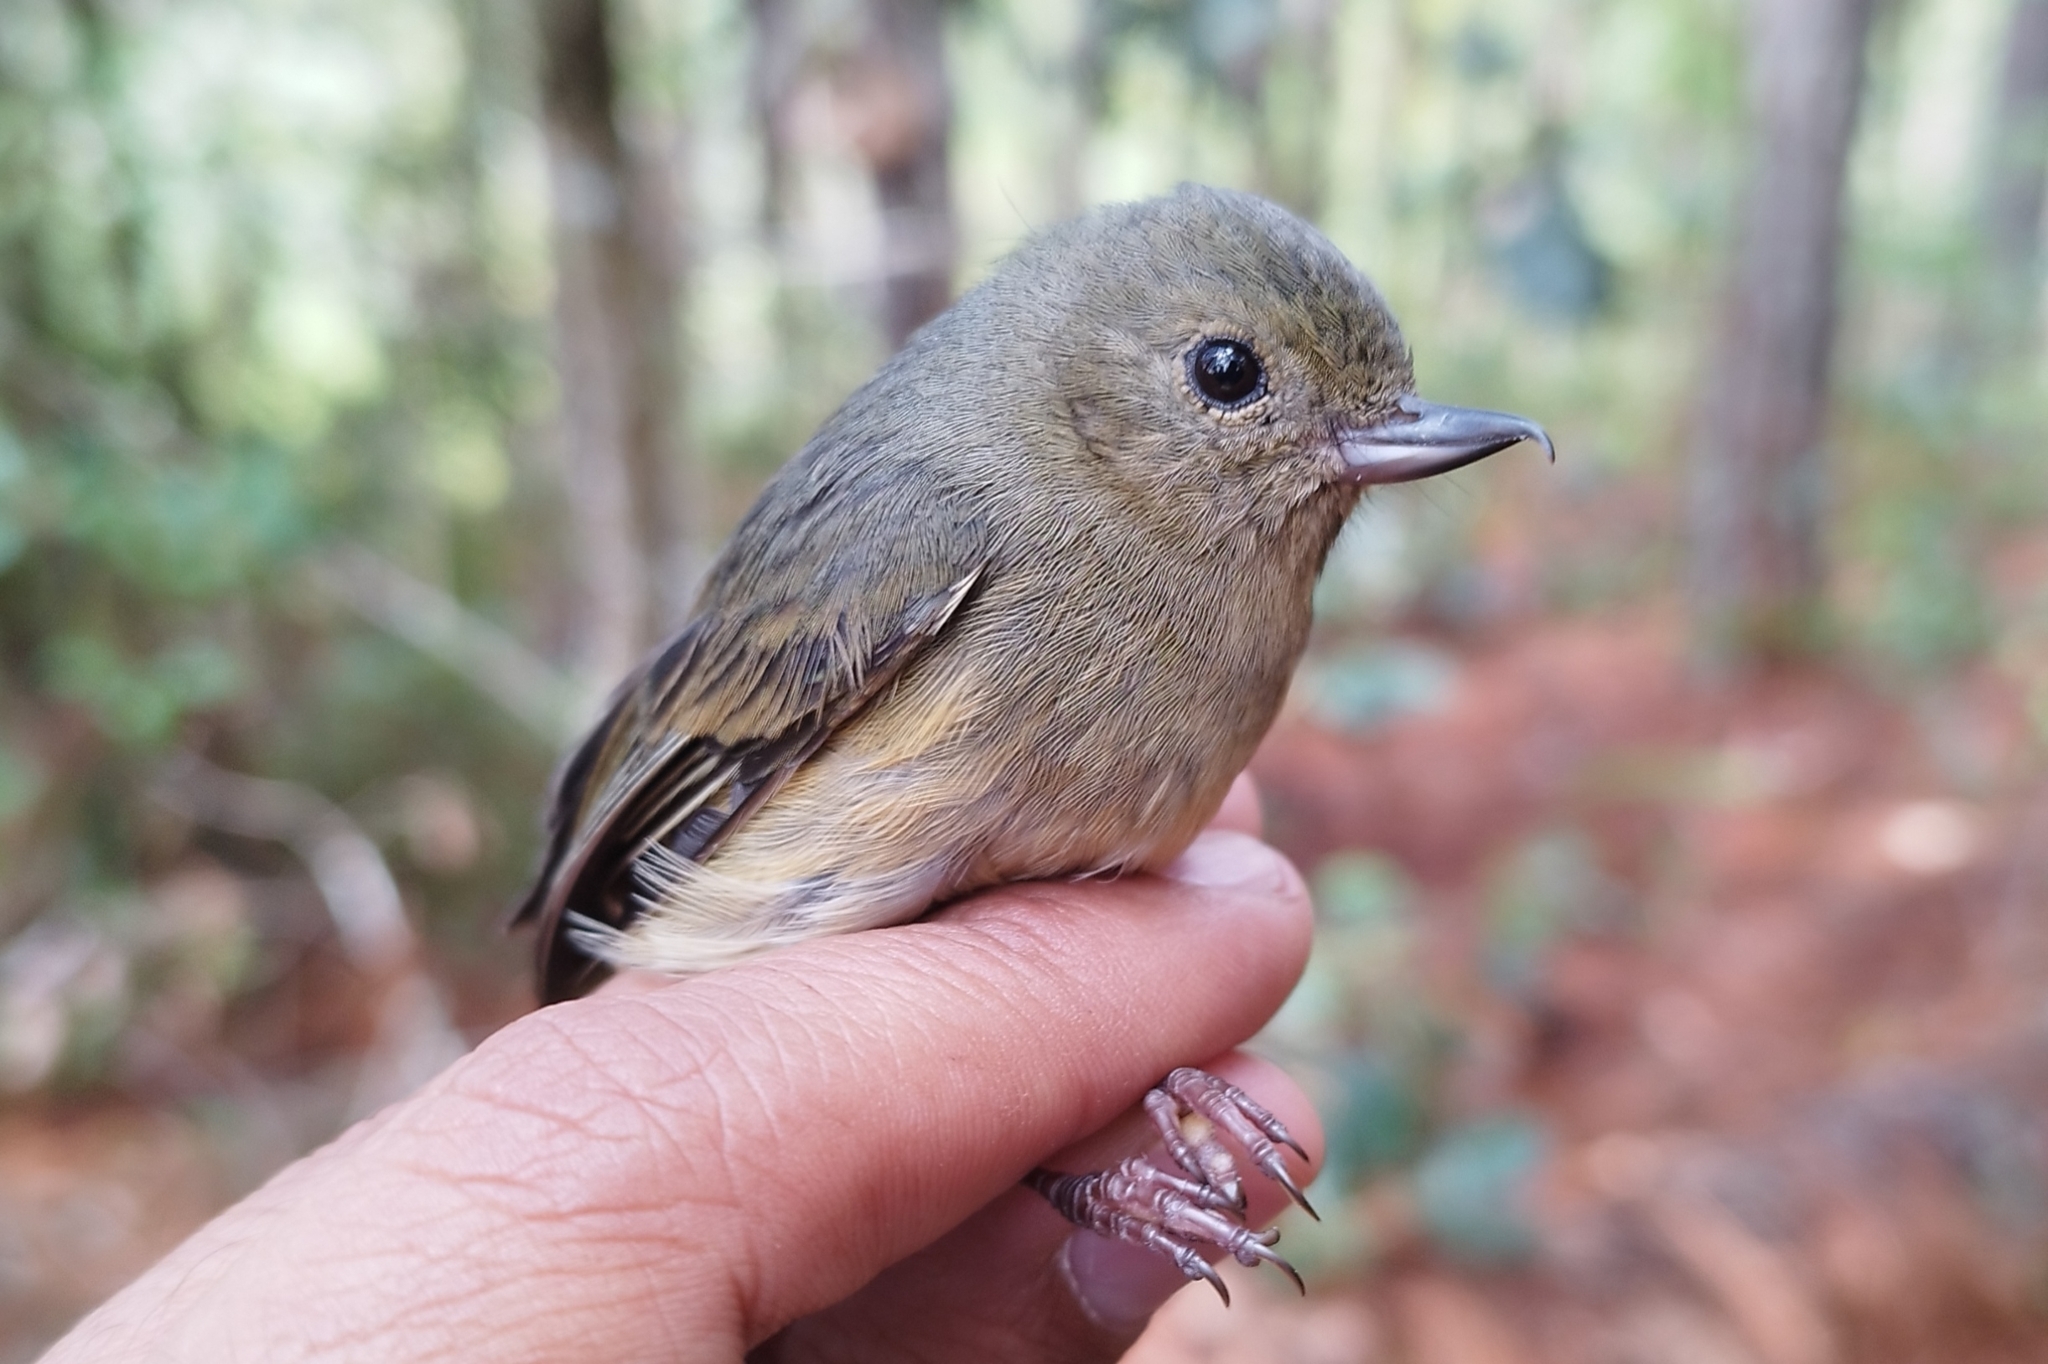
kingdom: Animalia
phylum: Chordata
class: Aves
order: Passeriformes
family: Thraupidae
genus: Diglossa
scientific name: Diglossa baritula
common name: Cinnamon-bellied flowerpiercer
